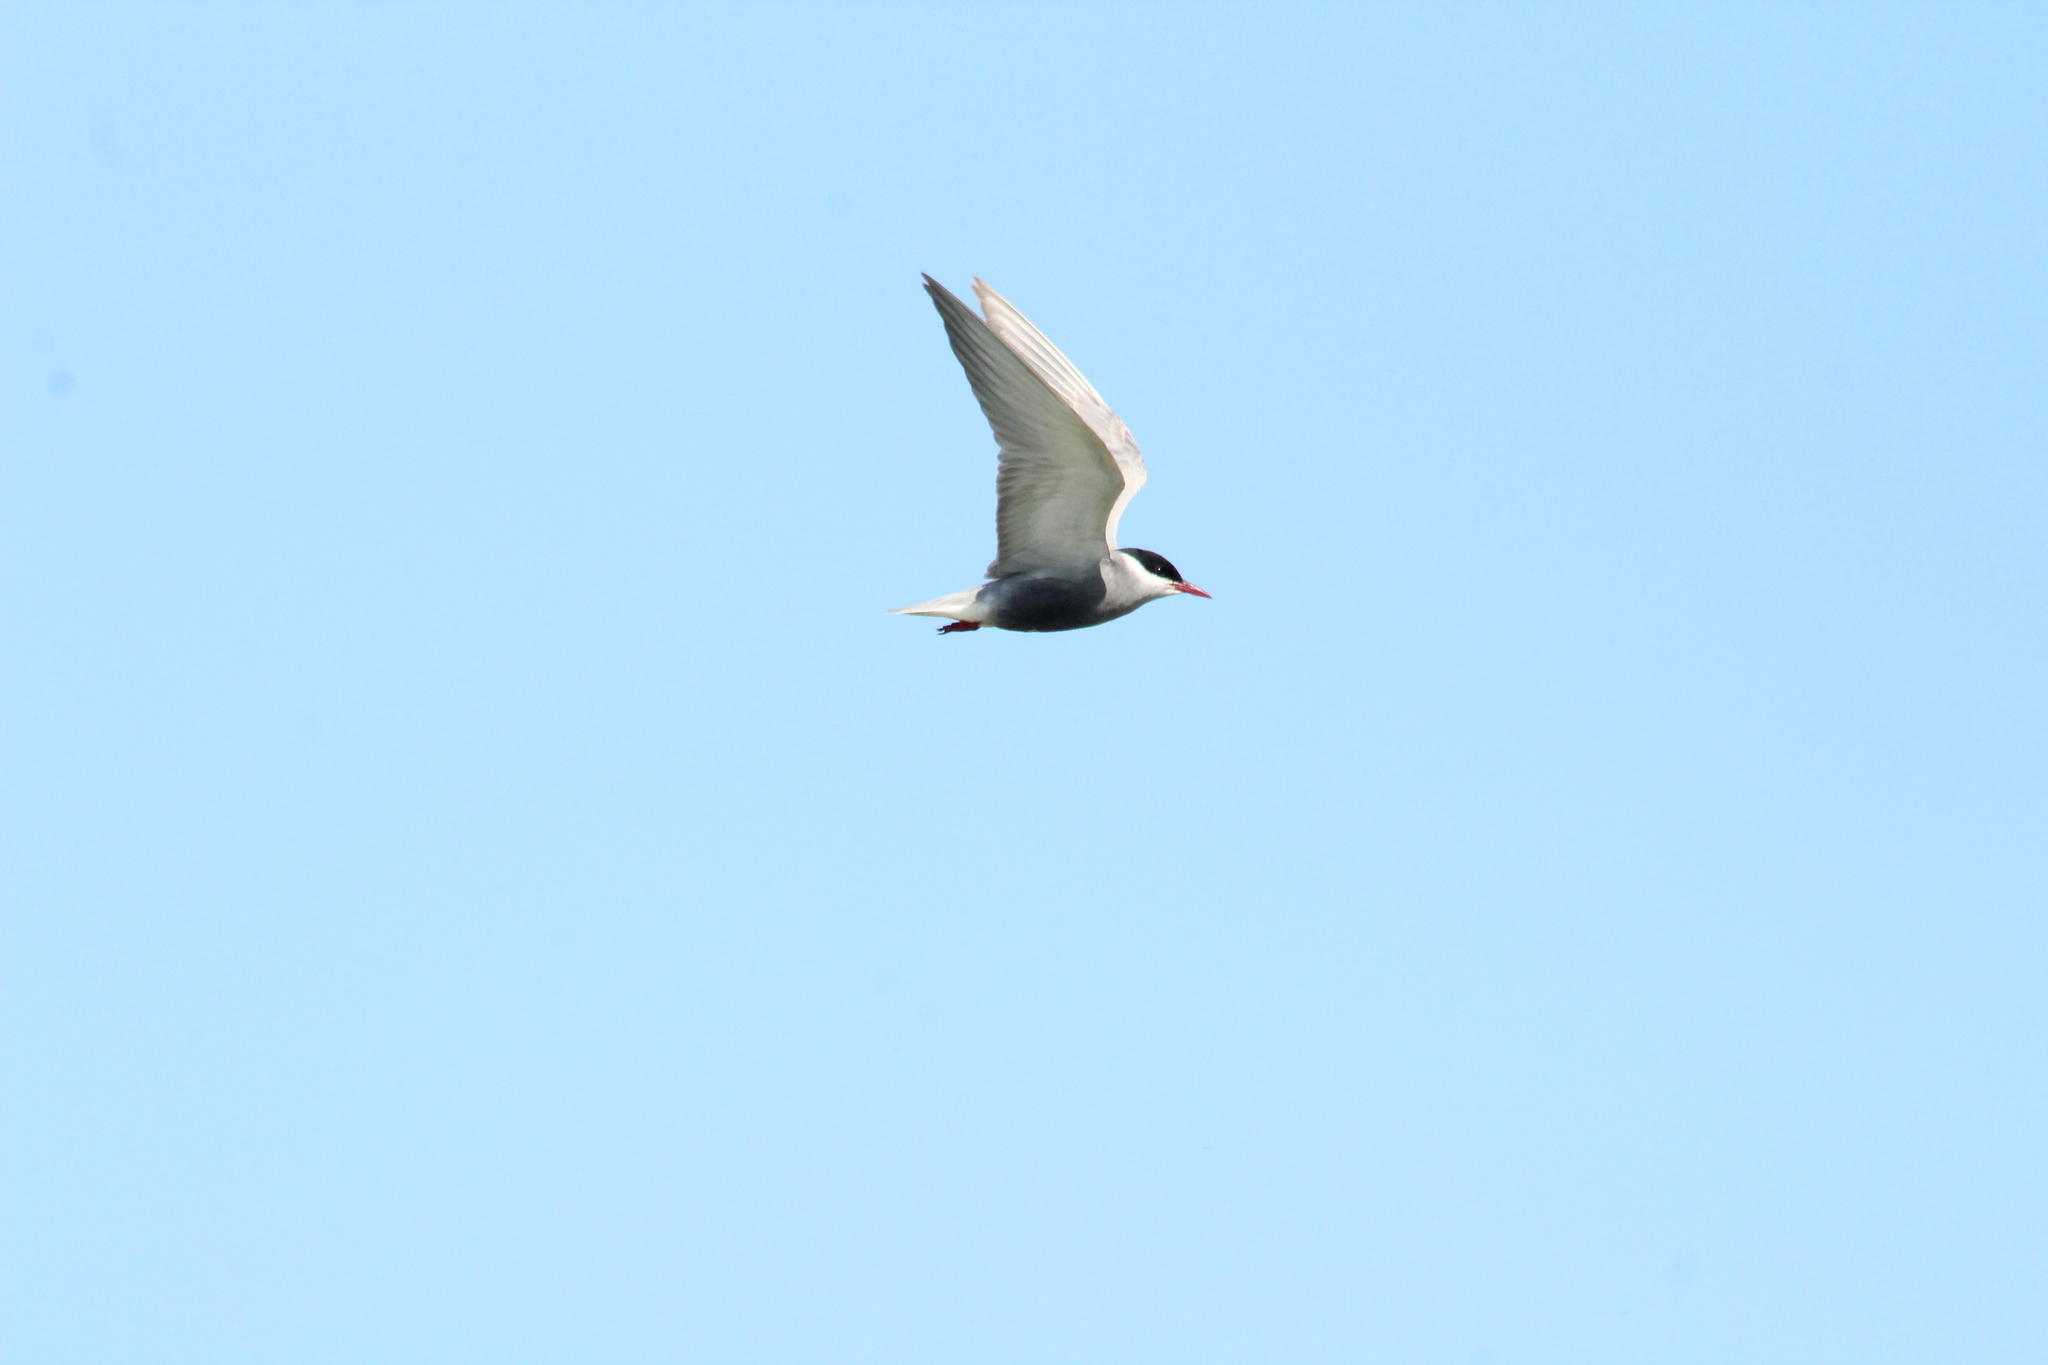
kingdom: Animalia
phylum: Chordata
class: Aves
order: Charadriiformes
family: Laridae
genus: Chlidonias
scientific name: Chlidonias hybrida
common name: Whiskered tern
